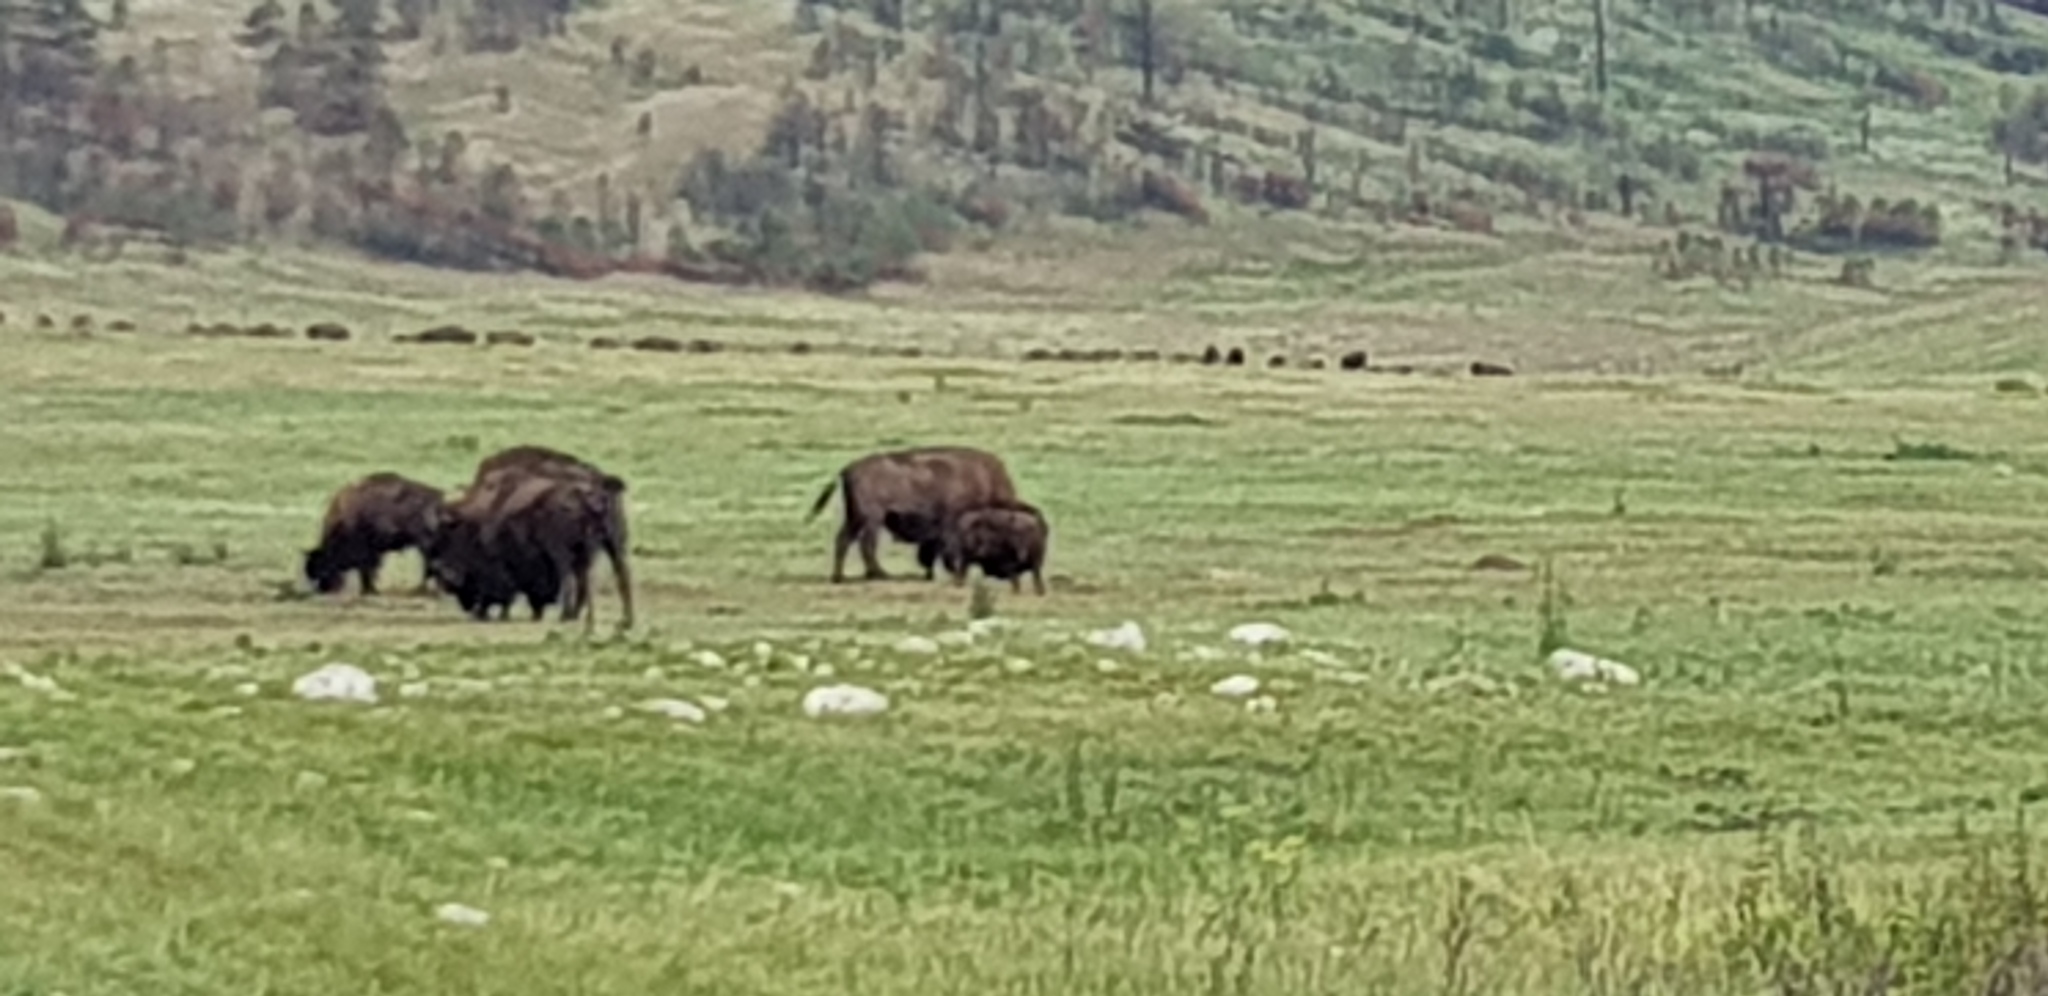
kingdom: Animalia
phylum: Chordata
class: Mammalia
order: Artiodactyla
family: Bovidae
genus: Bison
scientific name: Bison bison
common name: American bison
